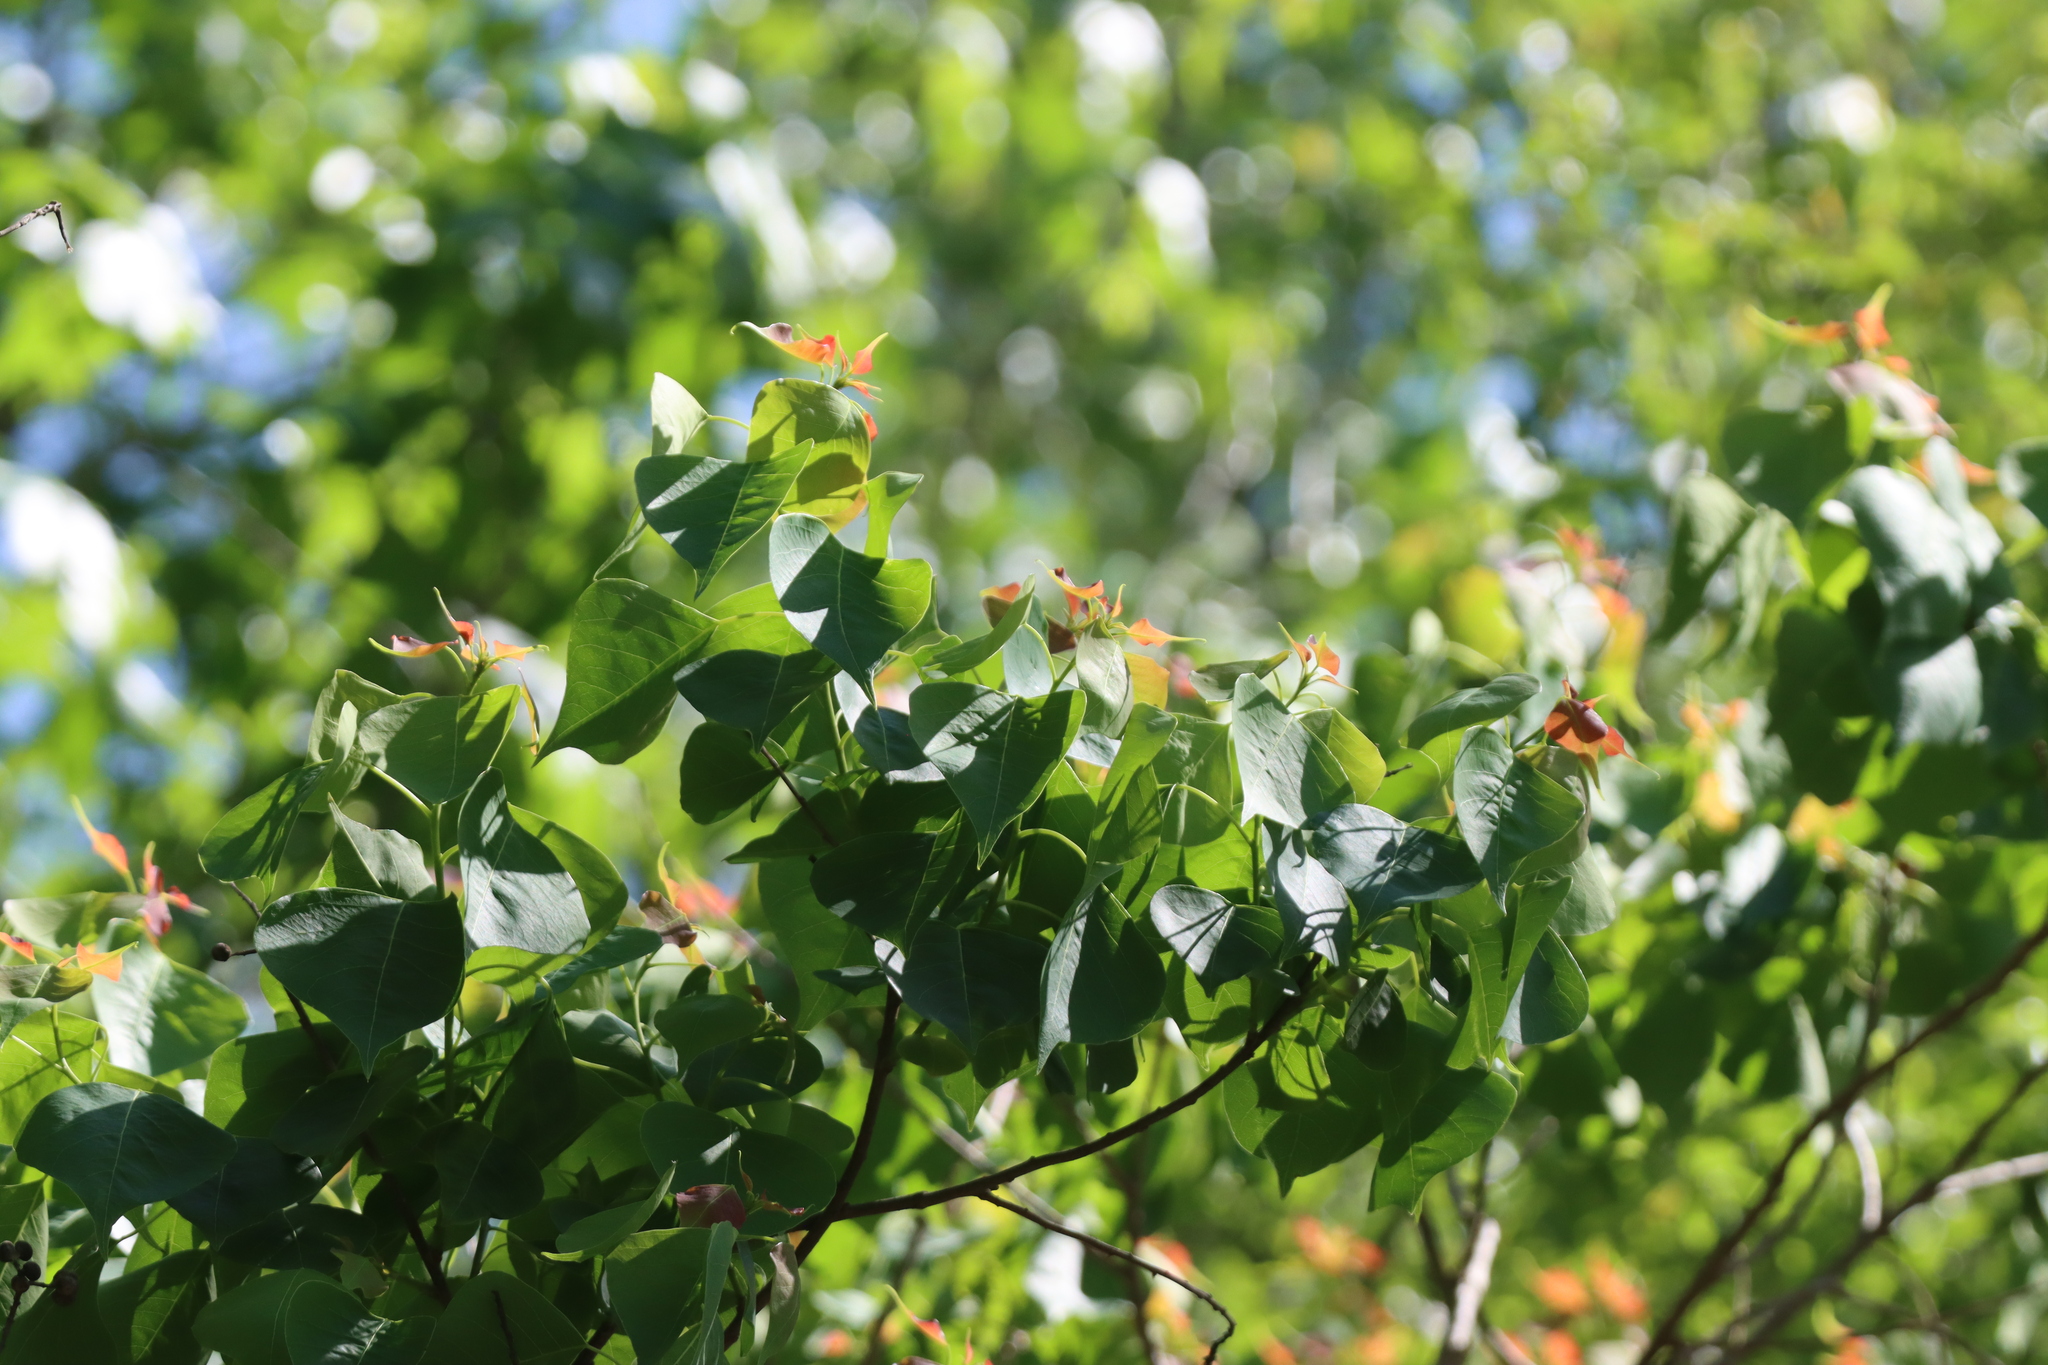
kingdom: Plantae
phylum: Tracheophyta
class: Magnoliopsida
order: Malpighiales
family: Euphorbiaceae
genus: Triadica
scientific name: Triadica sebifera
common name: Chinese tallow
